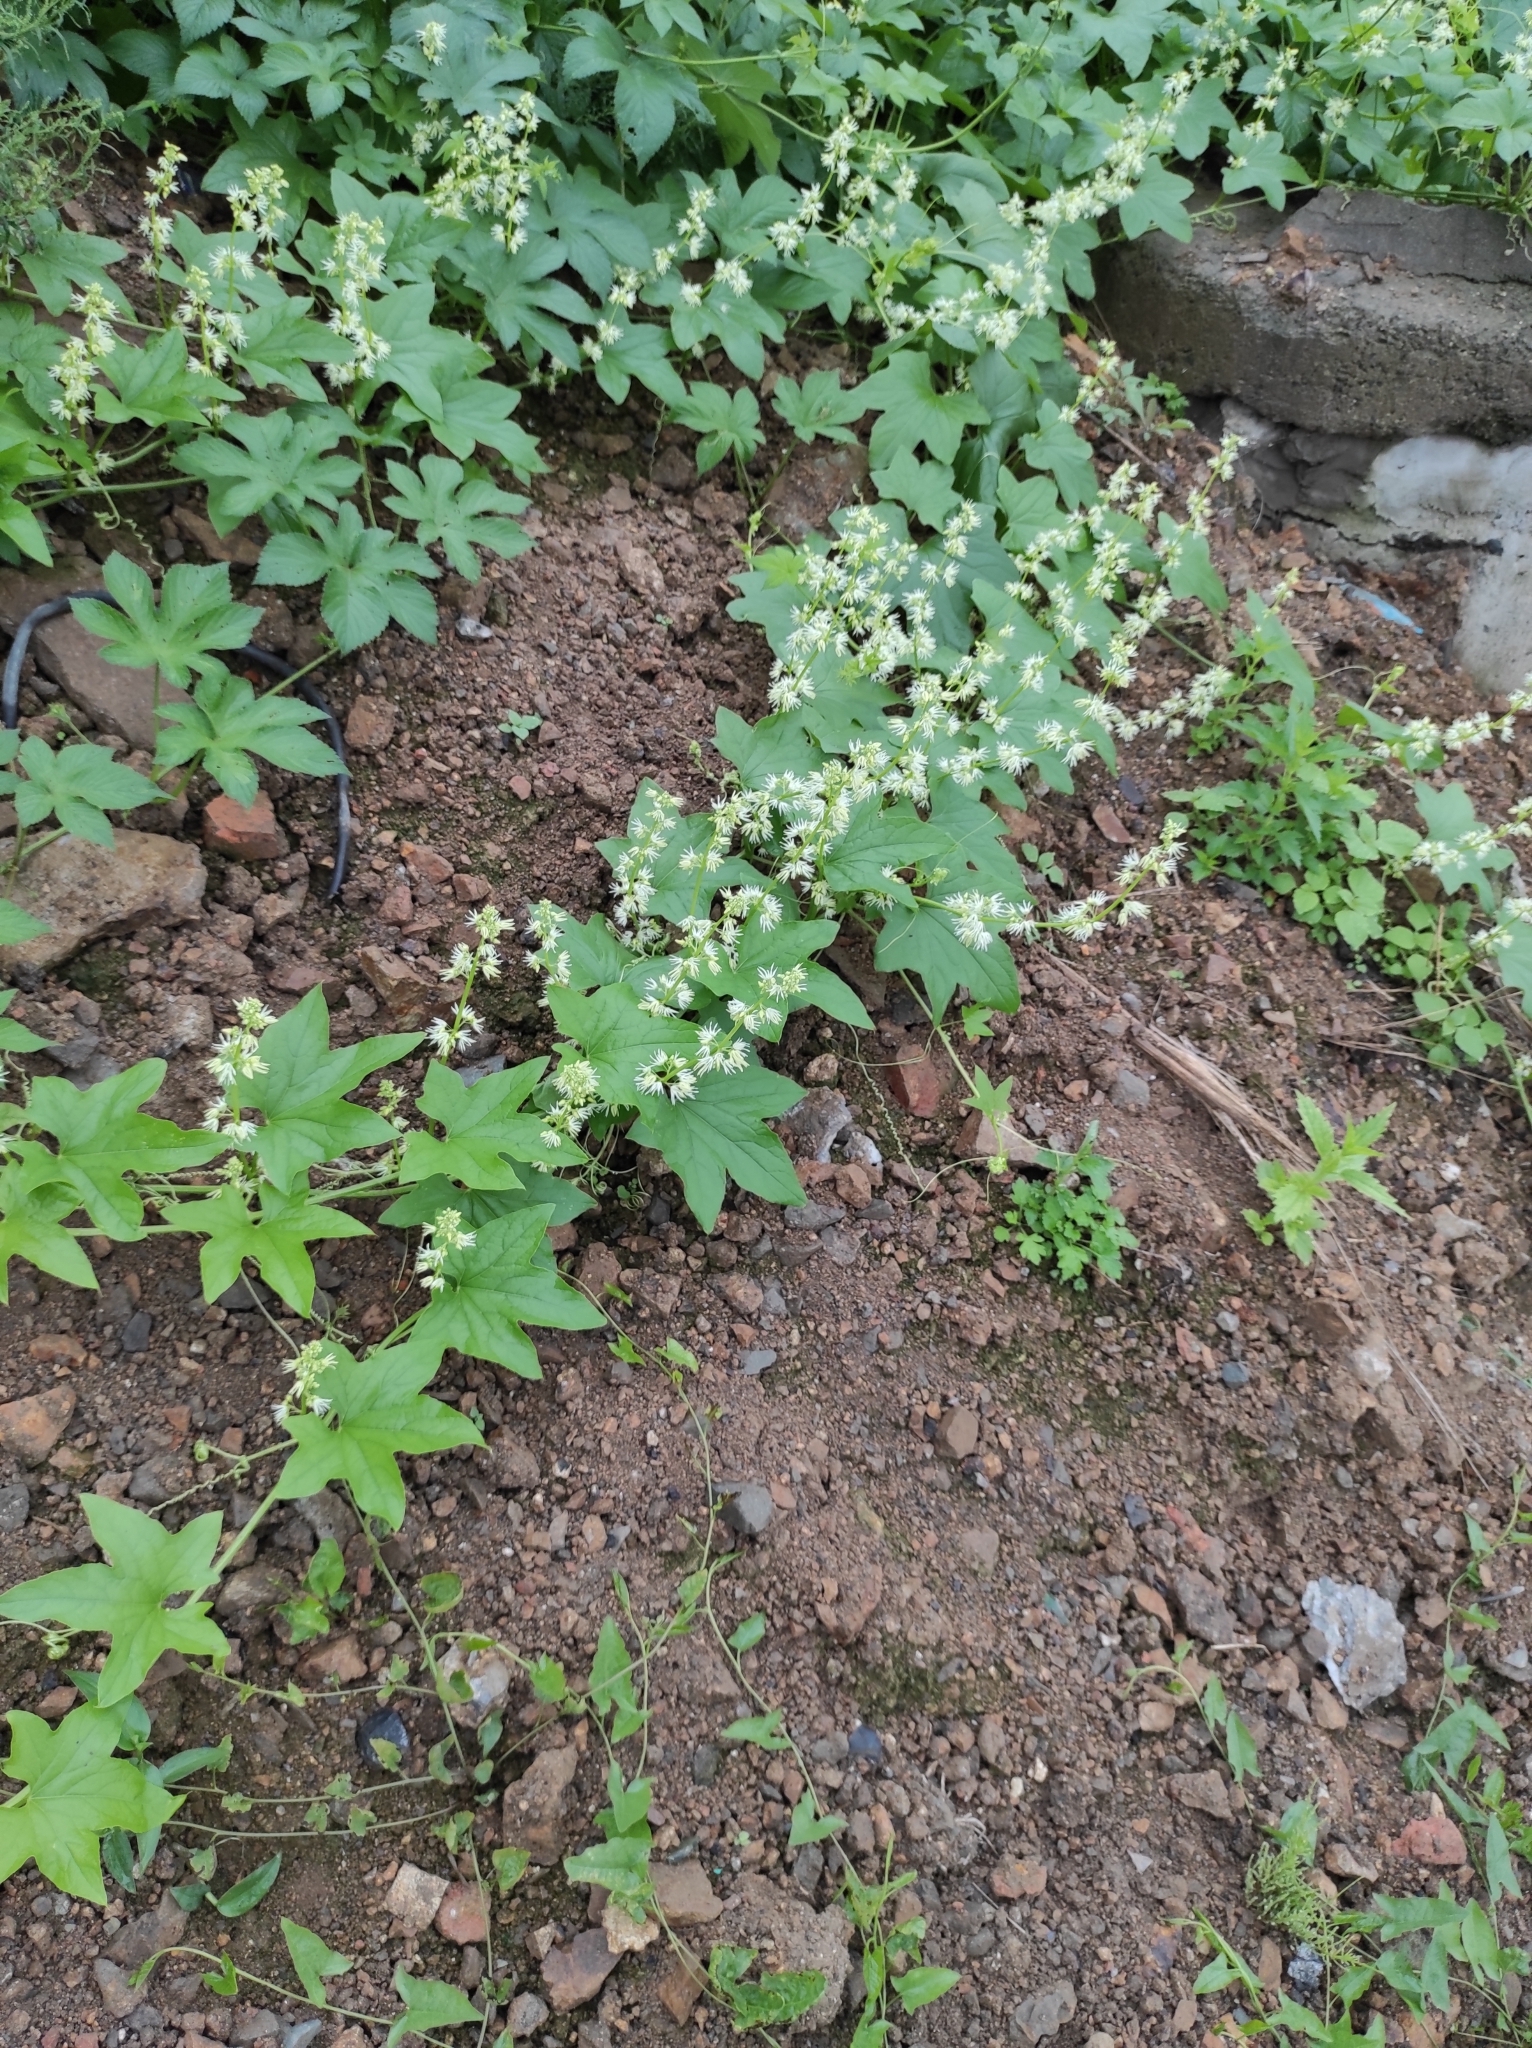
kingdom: Plantae
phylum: Tracheophyta
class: Magnoliopsida
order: Cucurbitales
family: Cucurbitaceae
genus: Echinocystis
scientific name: Echinocystis lobata
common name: Wild cucumber
